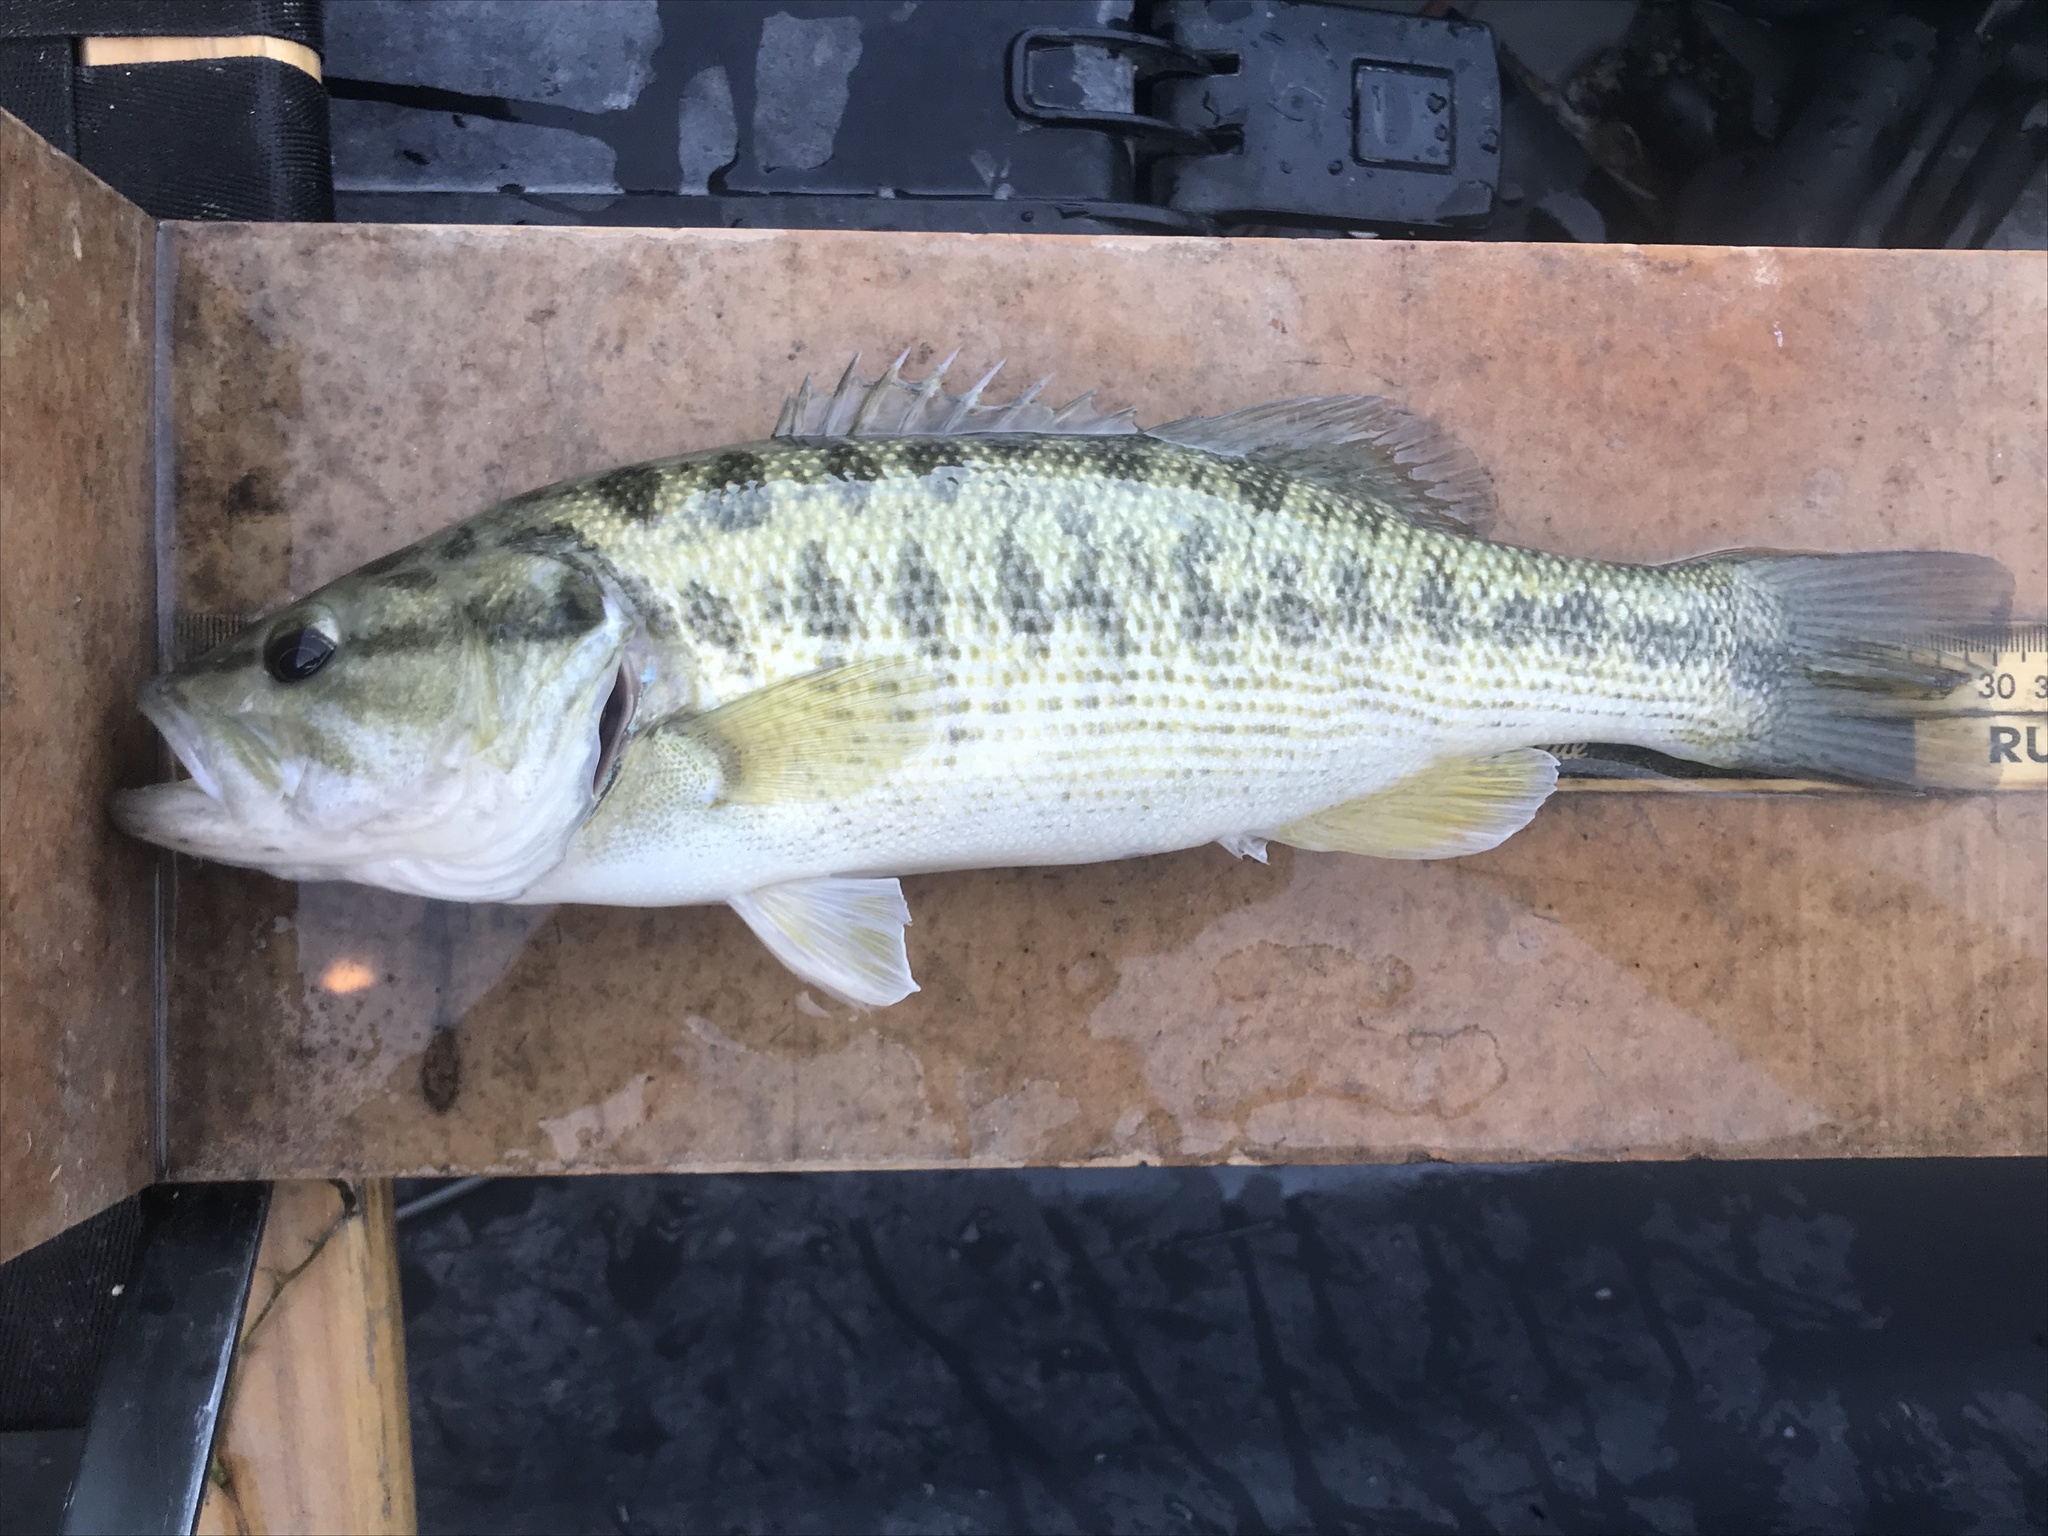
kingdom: Animalia
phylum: Chordata
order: Perciformes
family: Centrarchidae
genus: Micropterus
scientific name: Micropterus treculii
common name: Guadalupe bass
